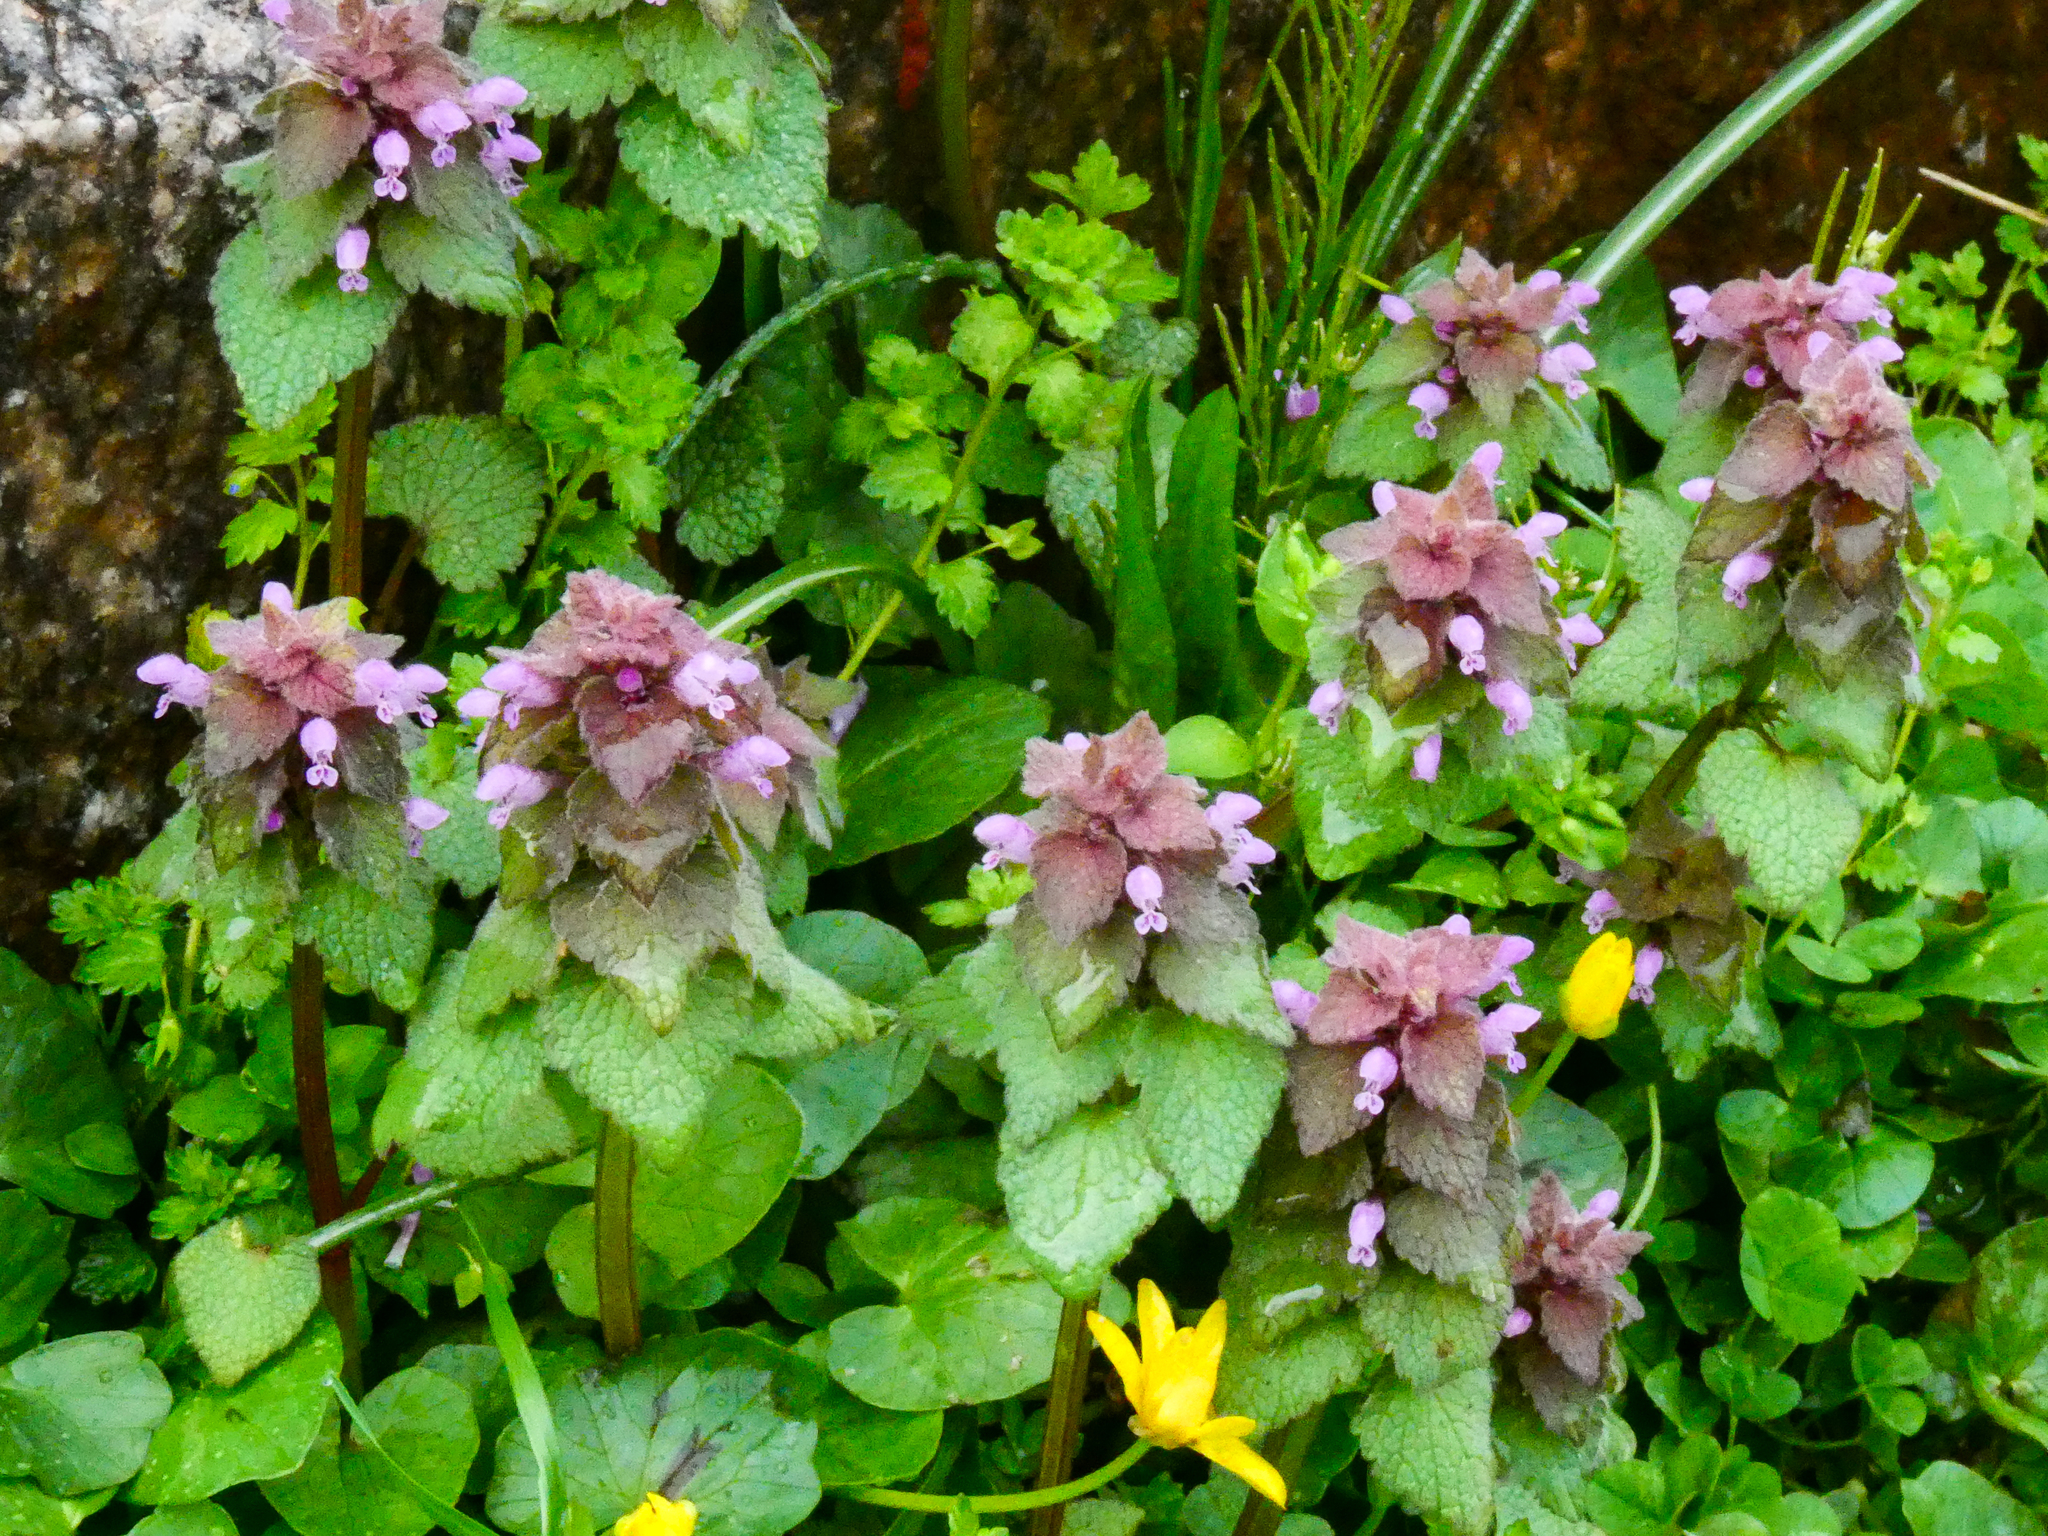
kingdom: Plantae
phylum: Tracheophyta
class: Magnoliopsida
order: Lamiales
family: Lamiaceae
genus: Lamium
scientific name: Lamium purpureum
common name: Red dead-nettle
